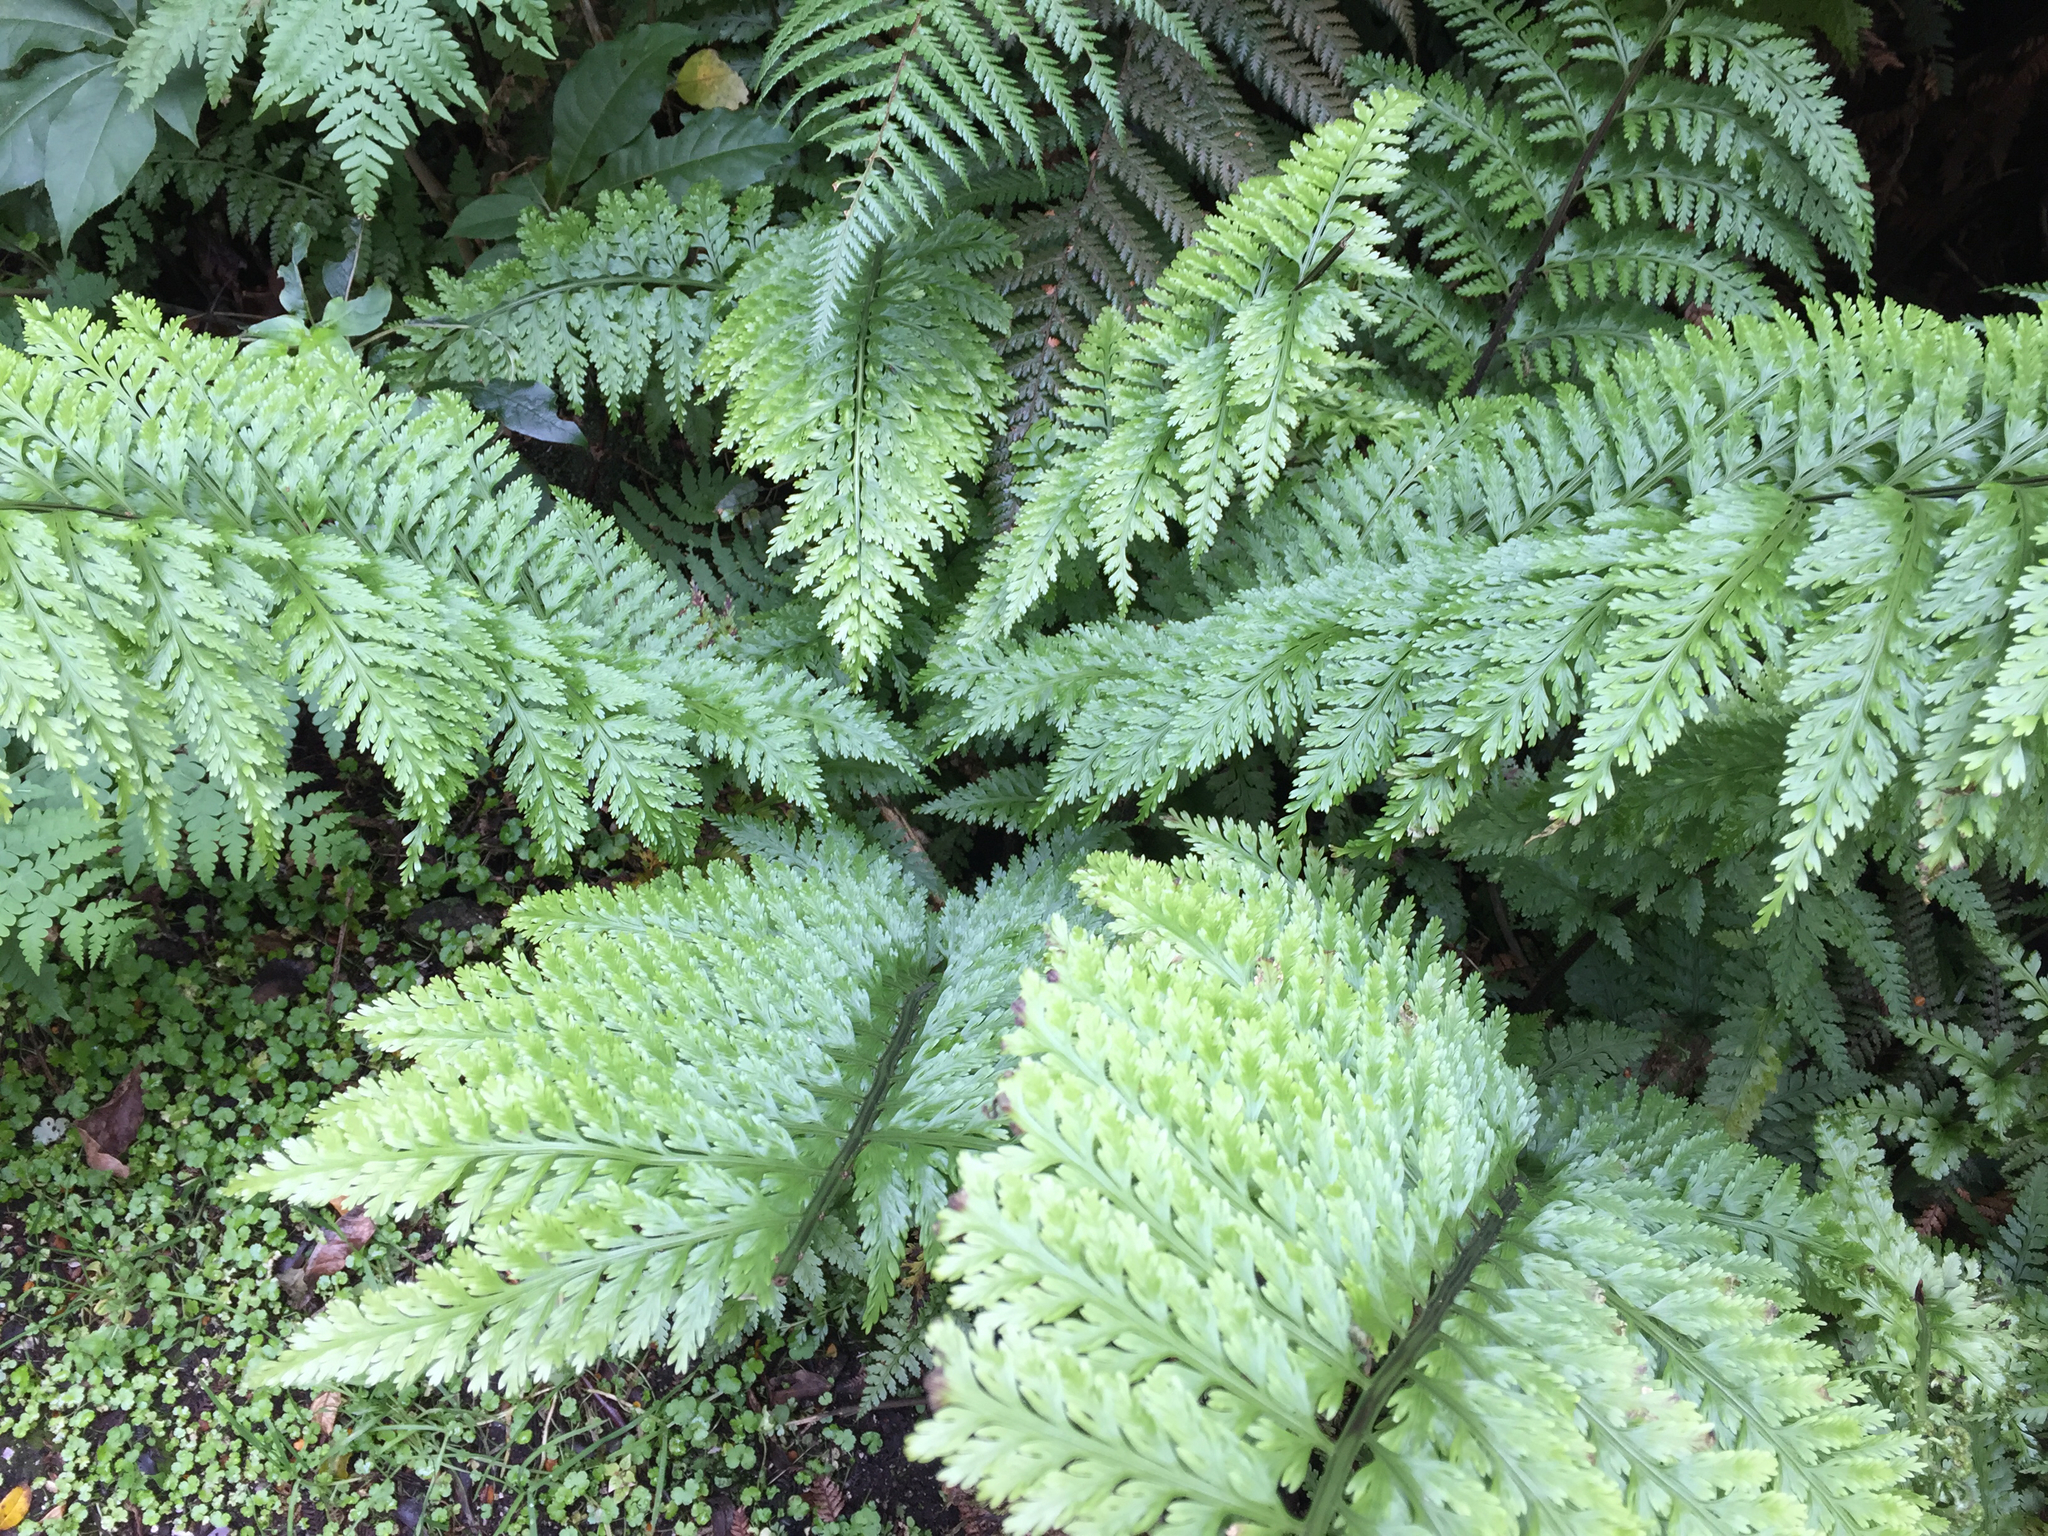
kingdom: Plantae
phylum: Tracheophyta
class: Polypodiopsida
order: Polypodiales
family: Aspleniaceae
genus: Asplenium
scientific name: Asplenium bulbiferum
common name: Mother fern
